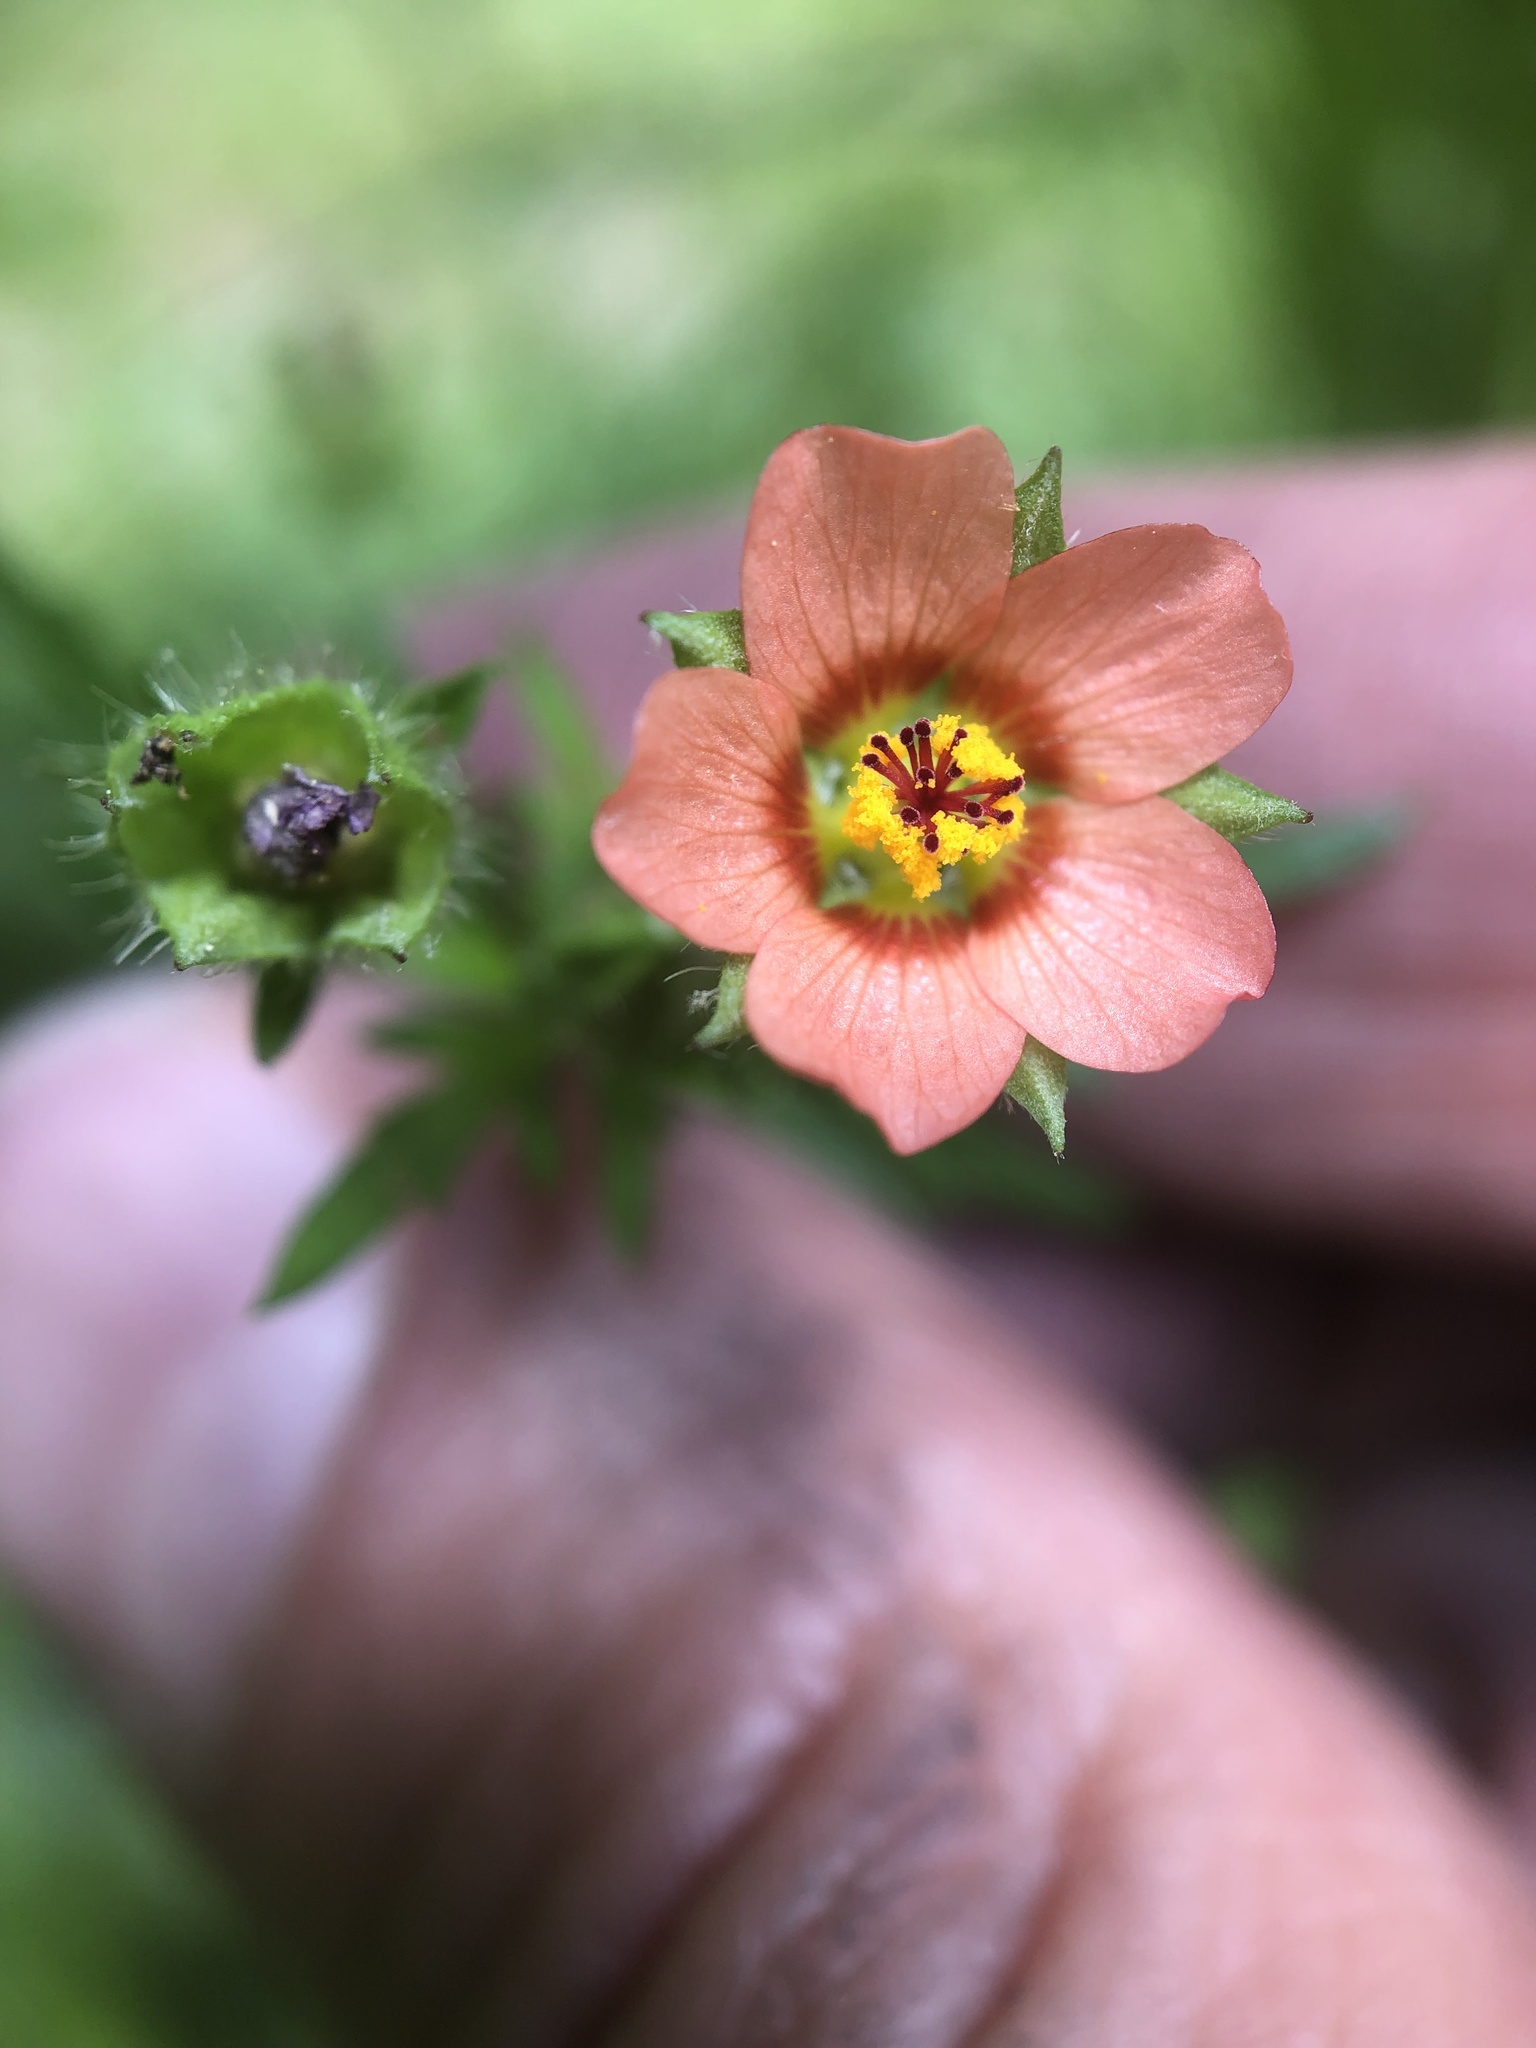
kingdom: Plantae
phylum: Tracheophyta
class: Magnoliopsida
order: Malvales
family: Malvaceae
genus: Modiola
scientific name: Modiola caroliniana
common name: Carolina bristlemallow
